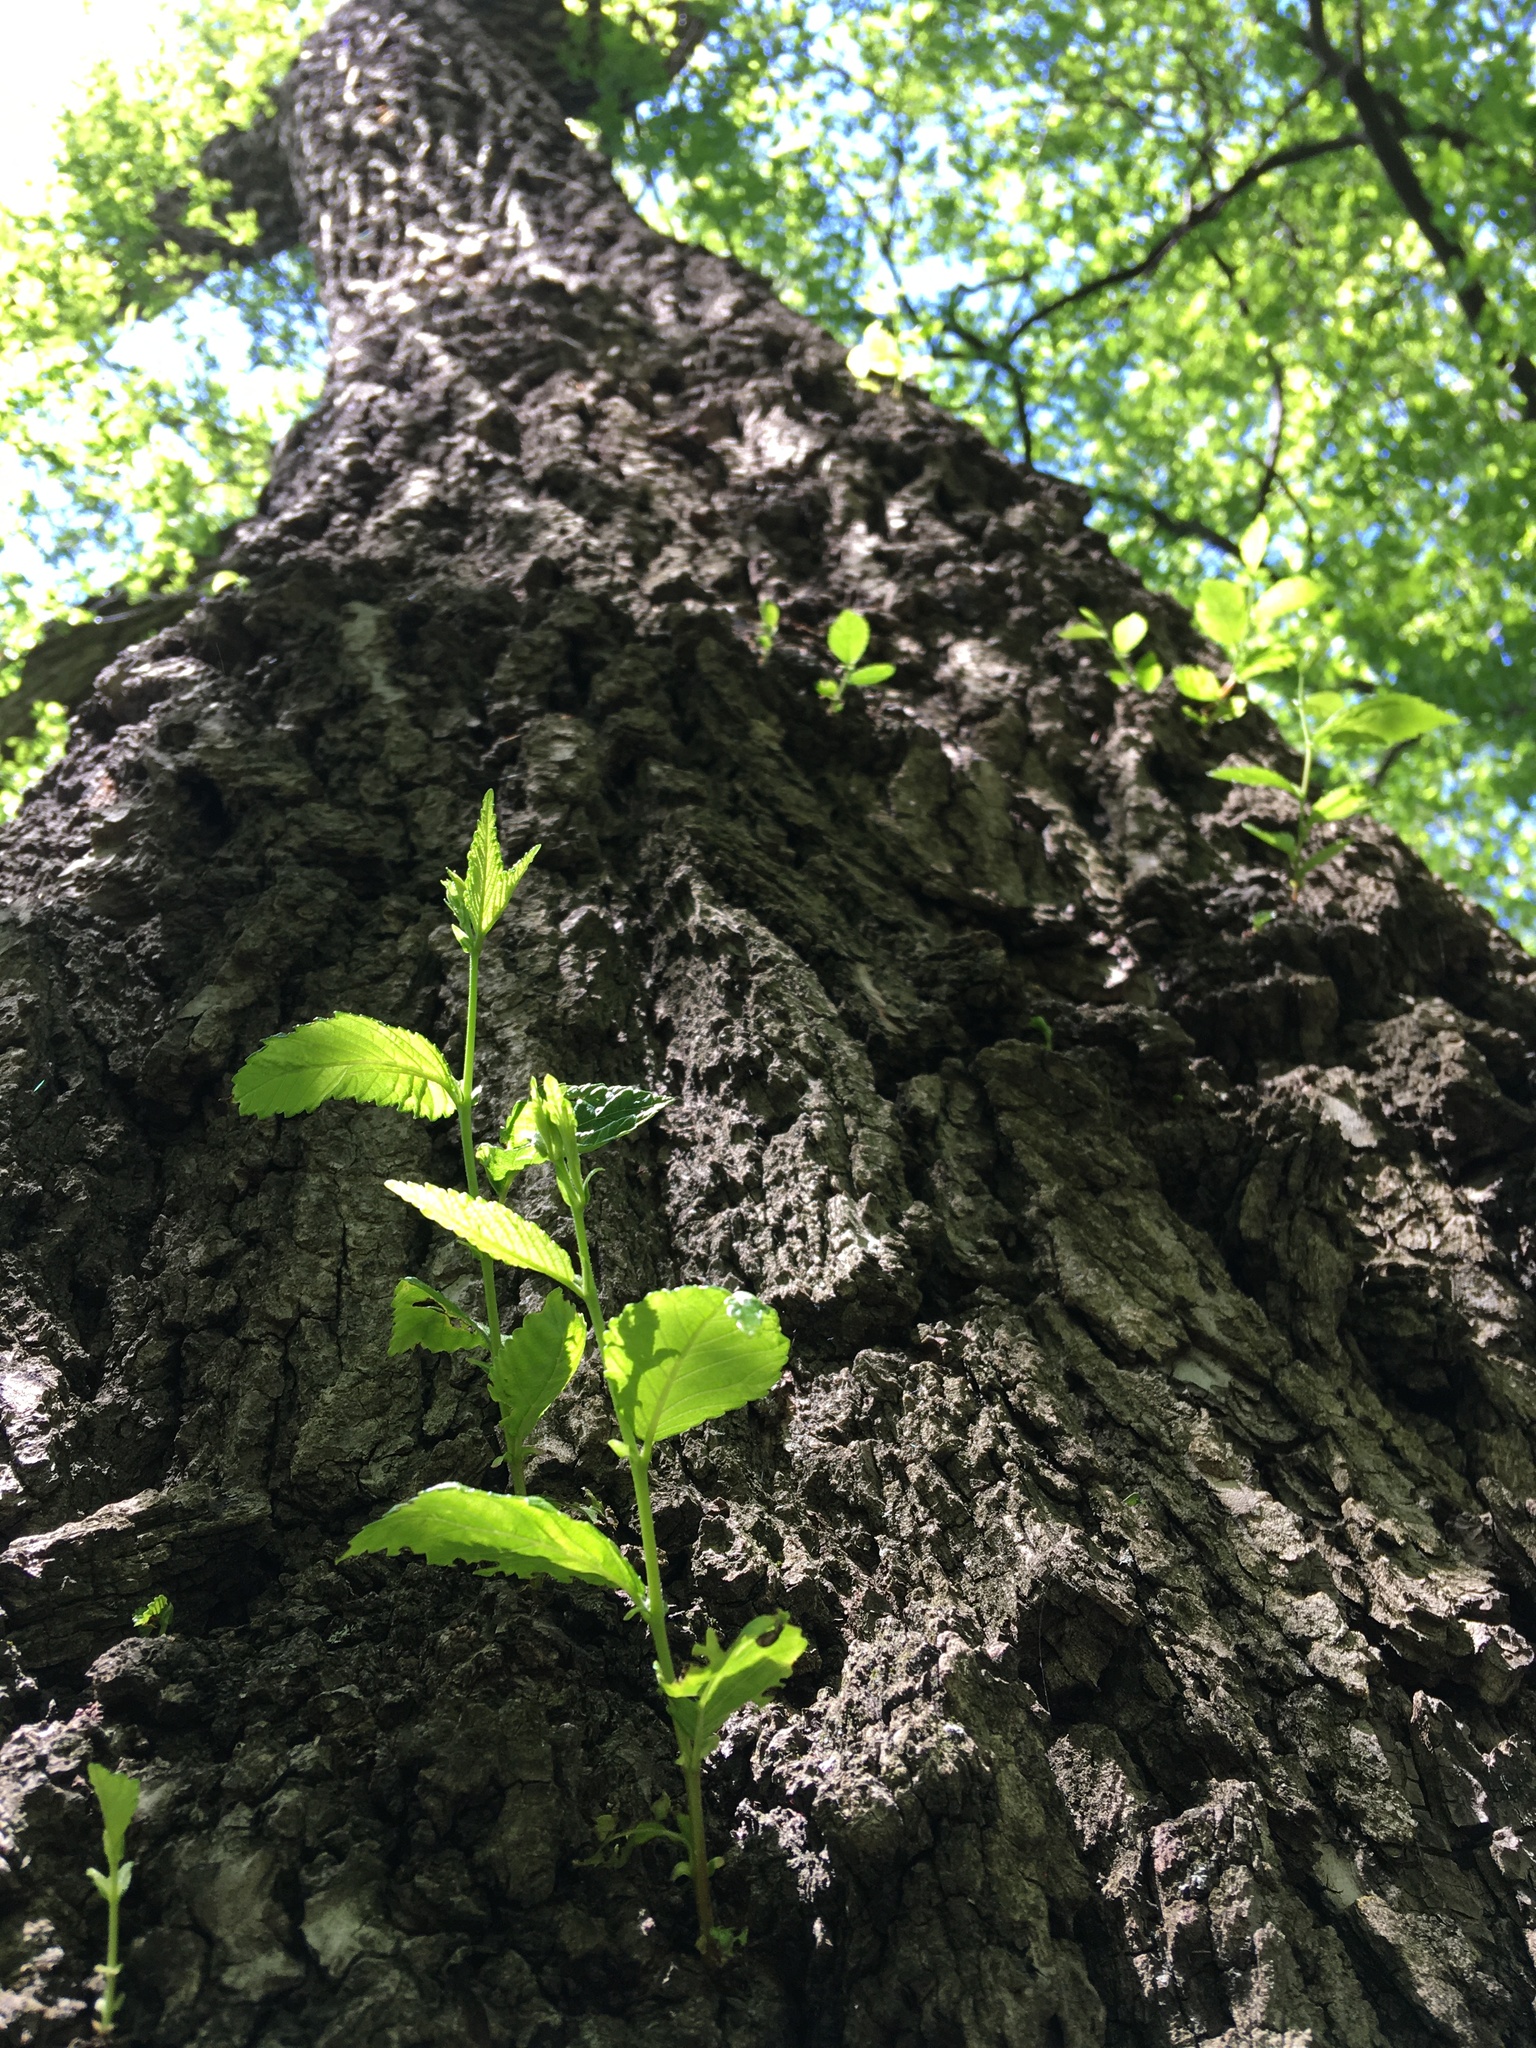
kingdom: Plantae
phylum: Tracheophyta
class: Magnoliopsida
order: Rosales
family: Ulmaceae
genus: Ulmus
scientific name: Ulmus pumila
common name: Siberian elm
